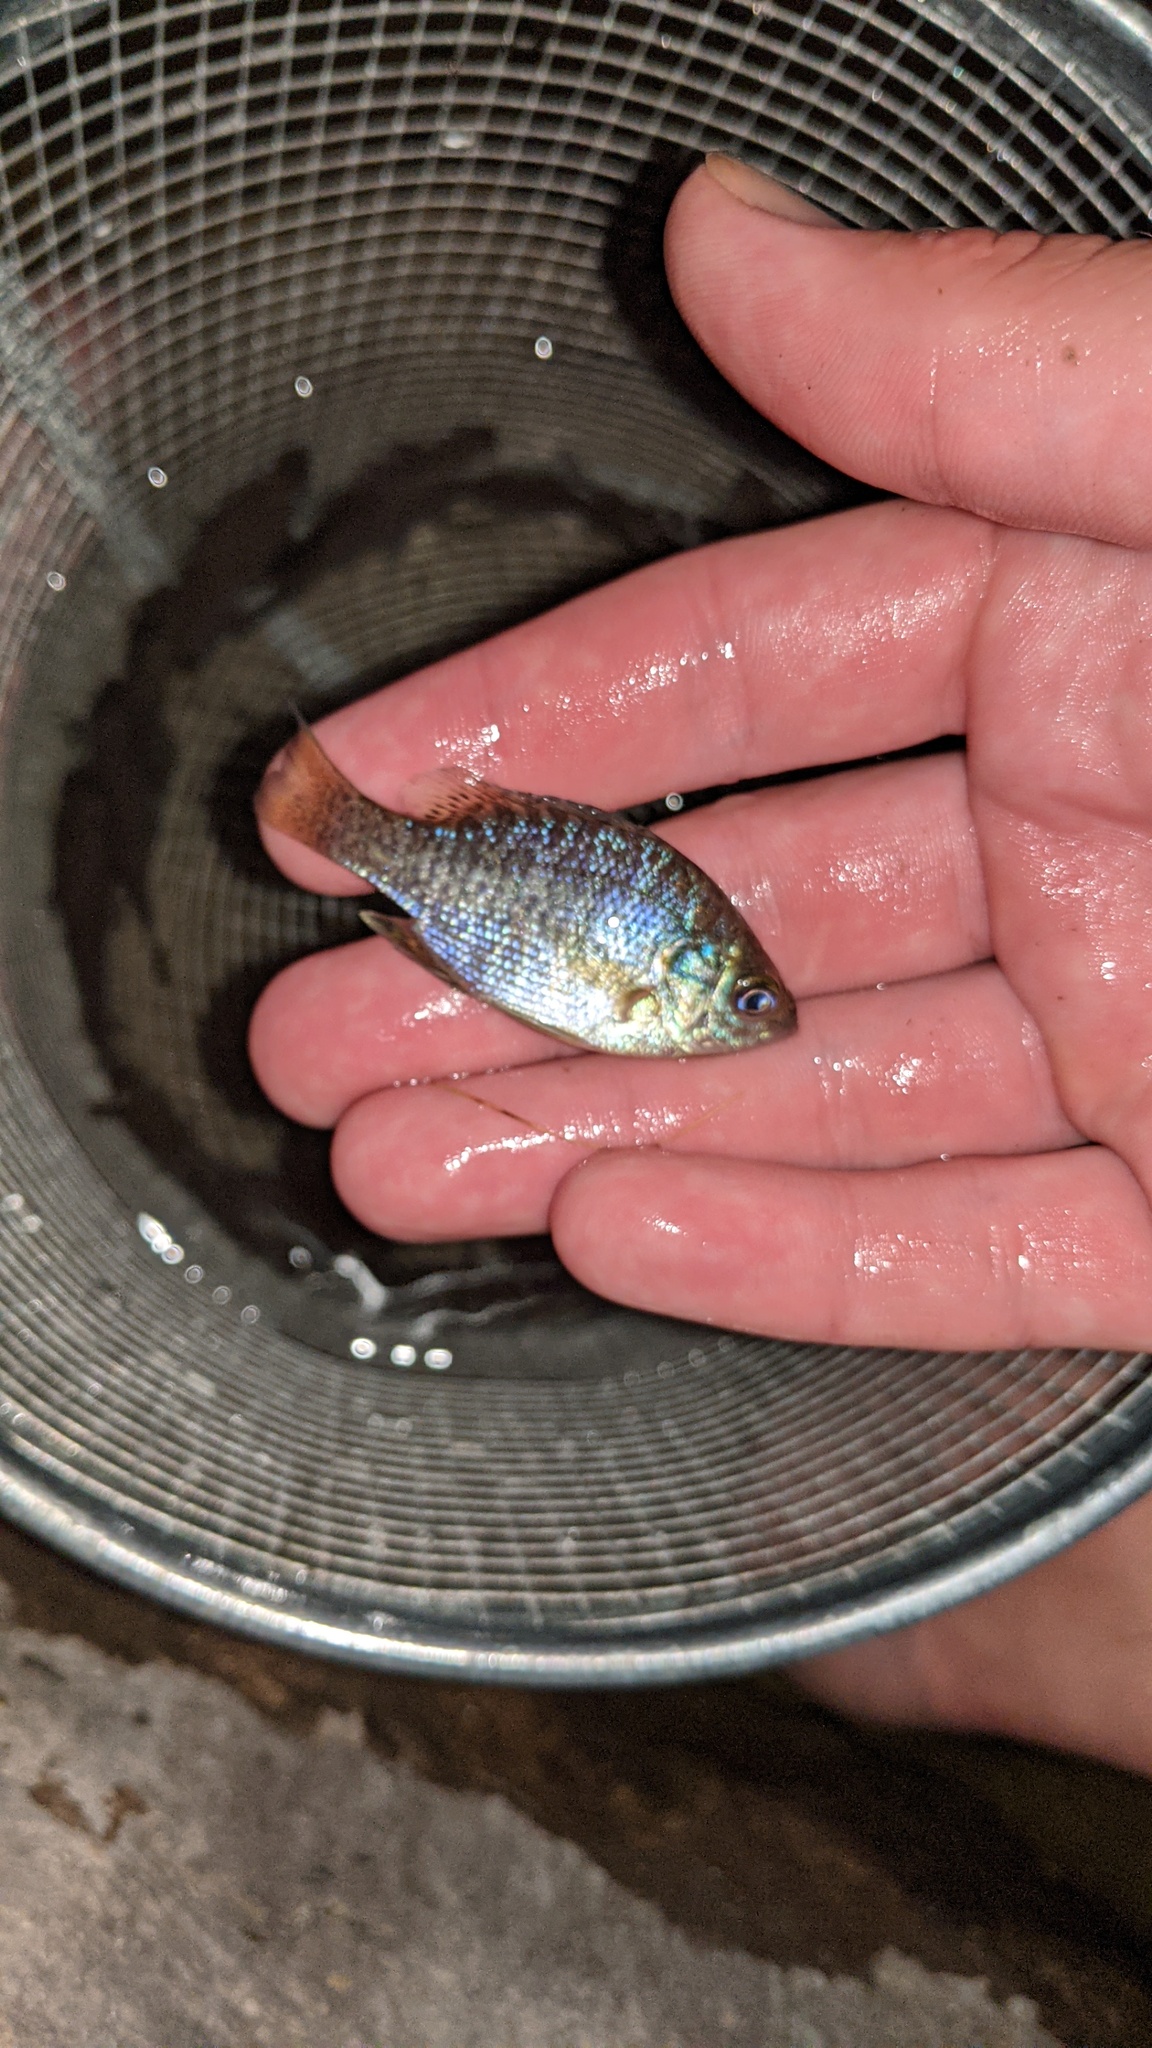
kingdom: Animalia
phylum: Chordata
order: Perciformes
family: Centrarchidae
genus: Lepomis
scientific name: Lepomis gibbosus
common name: Pumpkinseed
